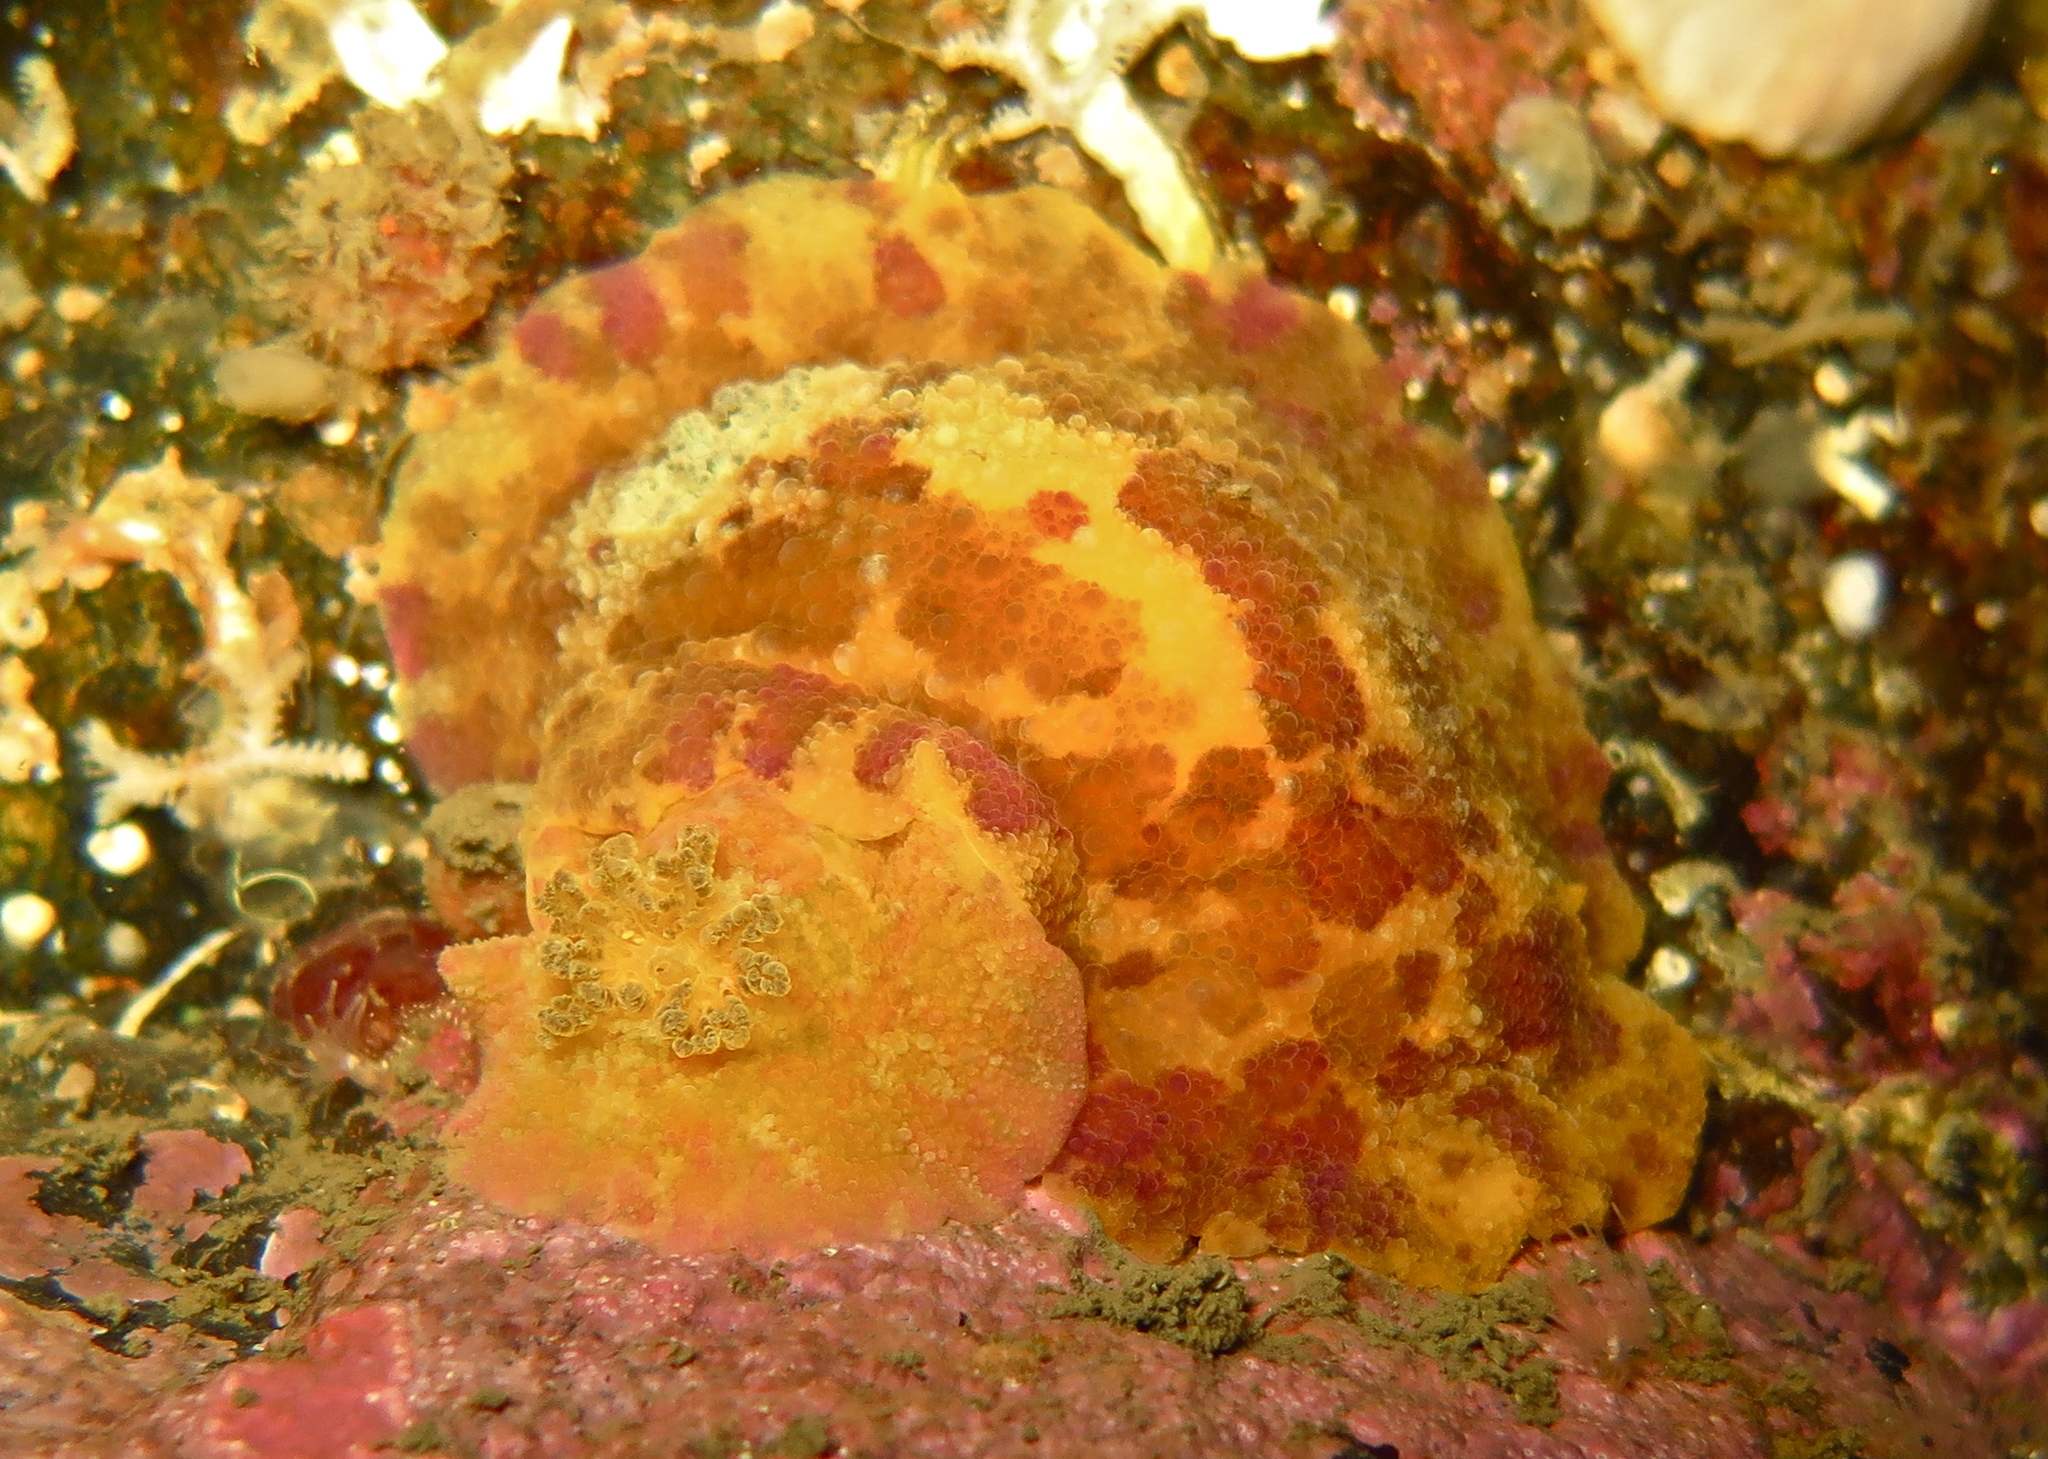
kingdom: Animalia
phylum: Mollusca
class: Gastropoda
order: Nudibranchia
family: Dorididae
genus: Doris
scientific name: Doris pseudoargus
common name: Sea lemon
